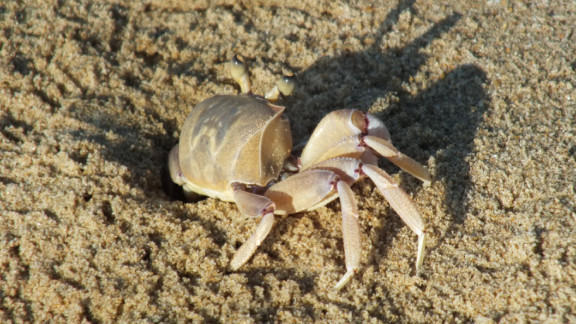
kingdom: Animalia
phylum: Arthropoda
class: Malacostraca
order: Decapoda
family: Ocypodidae
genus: Ocypode
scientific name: Ocypode ryderi
